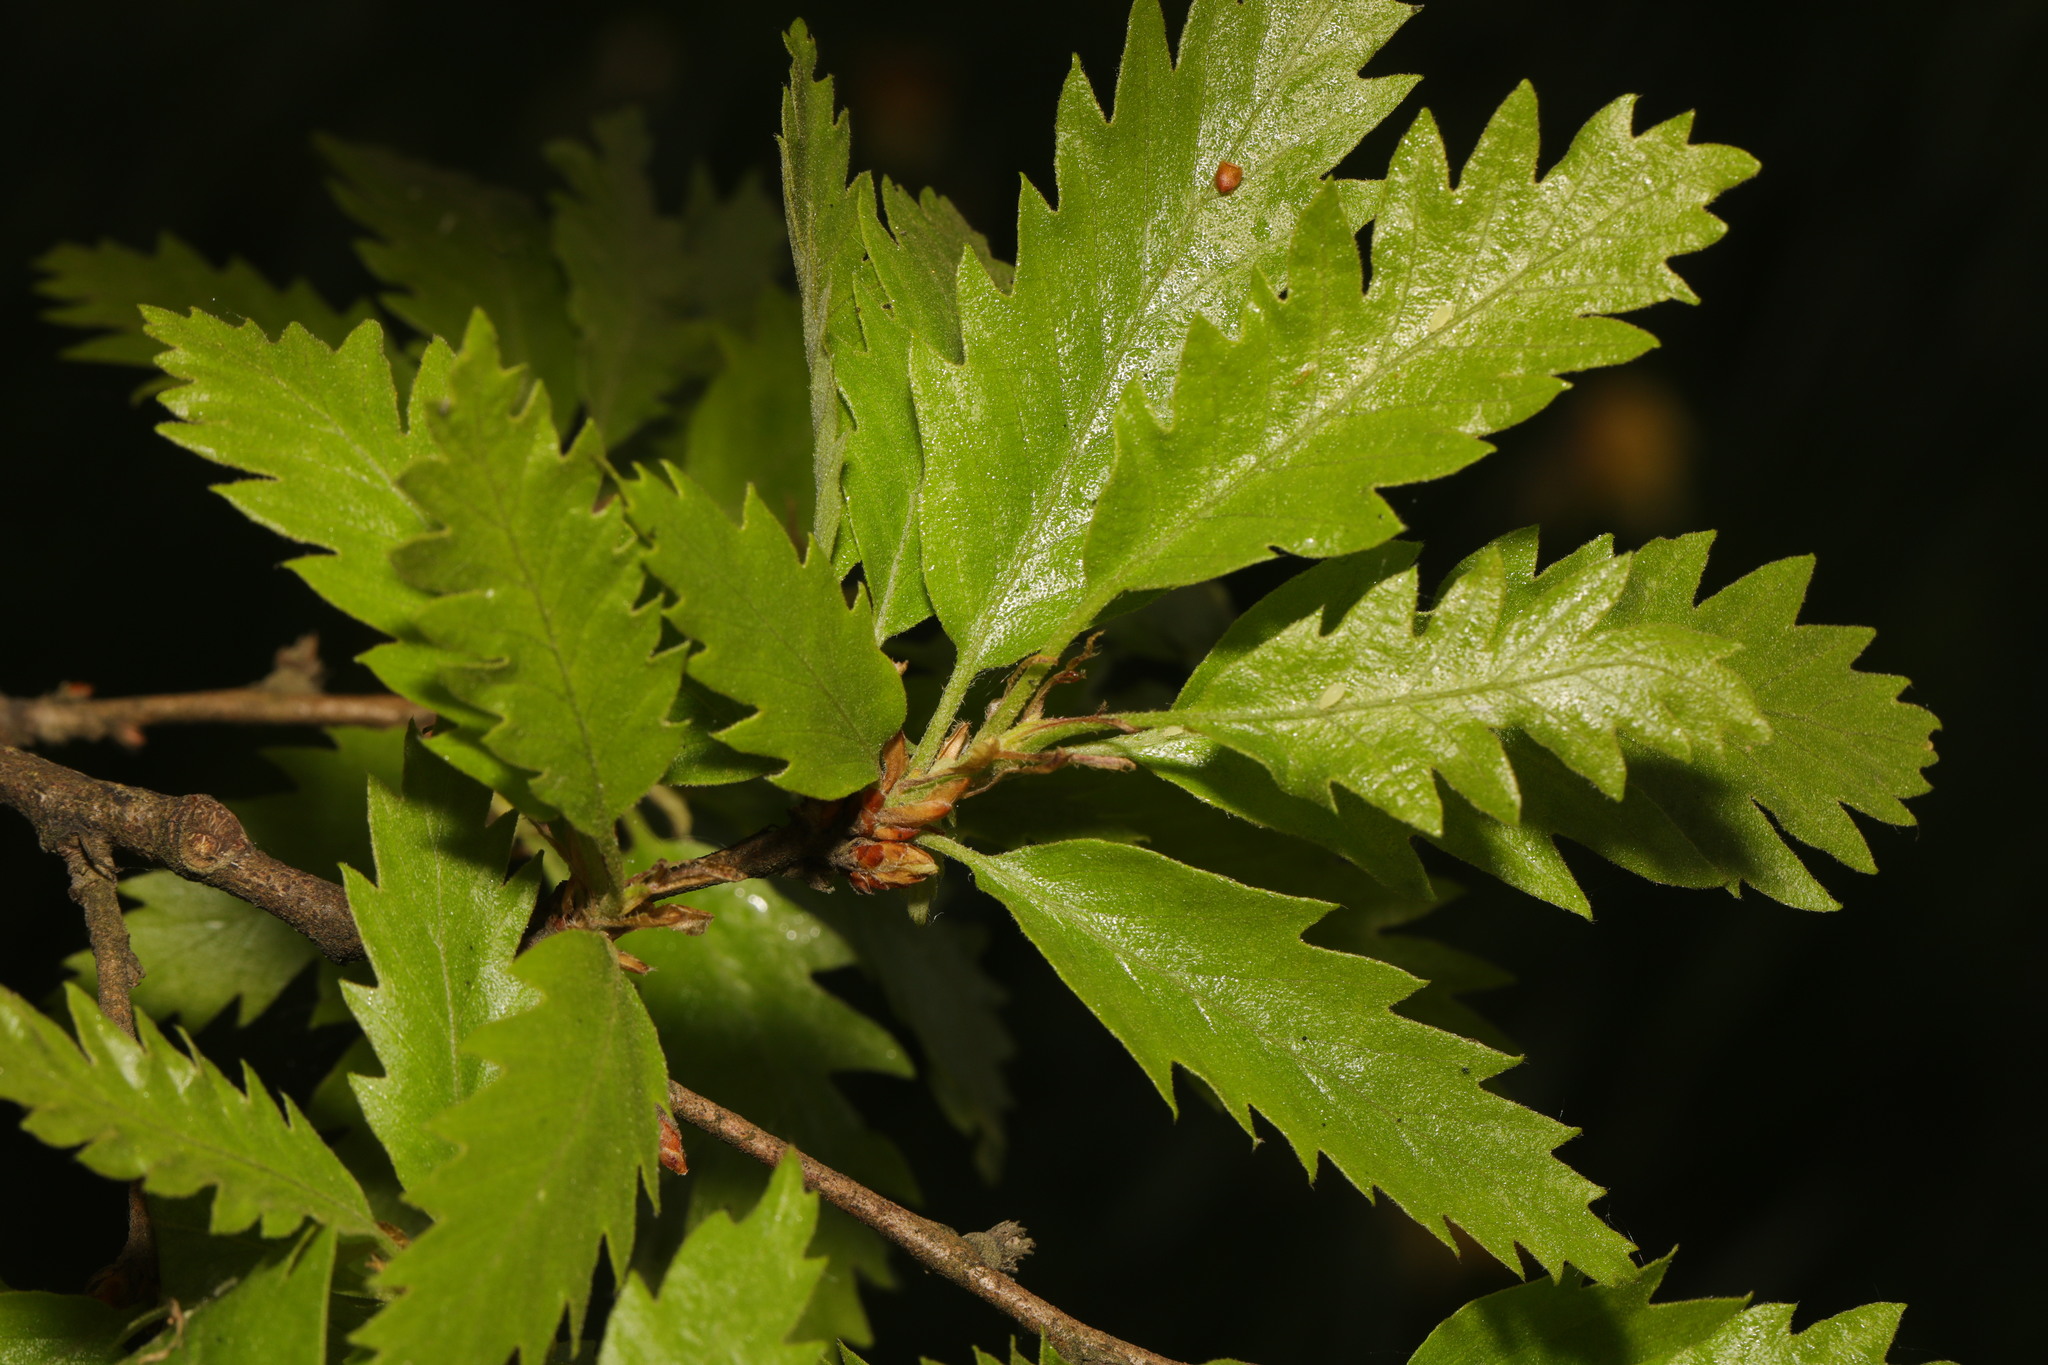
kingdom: Plantae
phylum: Tracheophyta
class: Magnoliopsida
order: Fagales
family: Fagaceae
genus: Quercus
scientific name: Quercus cerris
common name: Turkey oak
